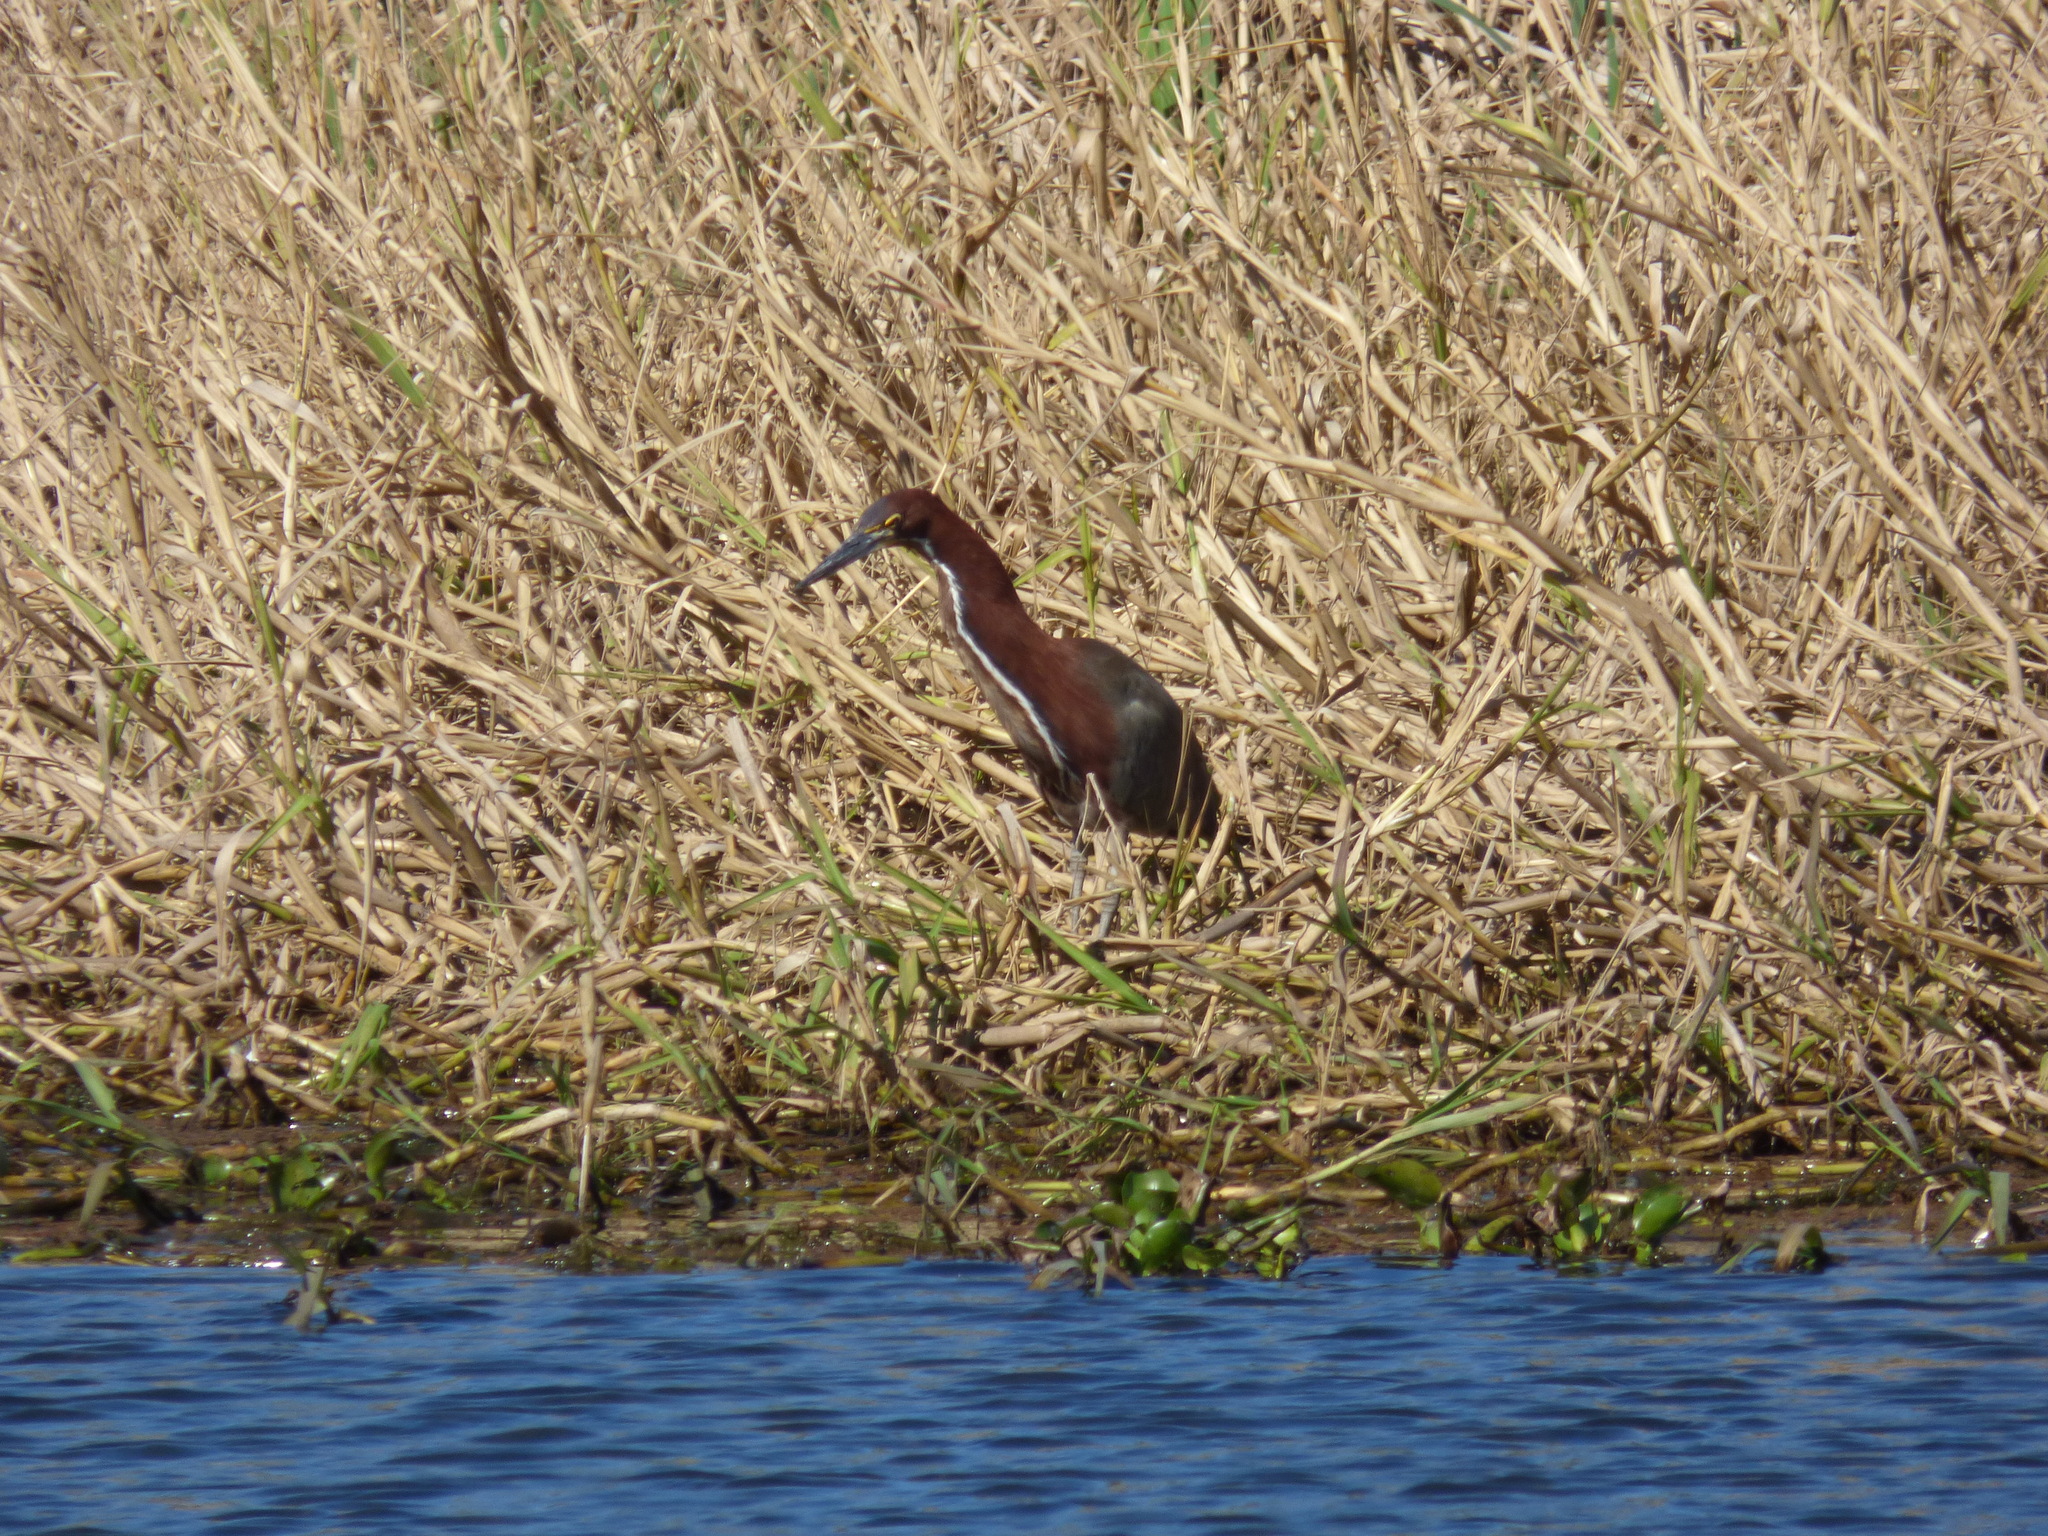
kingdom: Animalia
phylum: Chordata
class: Aves
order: Pelecaniformes
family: Ardeidae
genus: Tigrisoma
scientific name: Tigrisoma lineatum
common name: Rufescent tiger-heron
